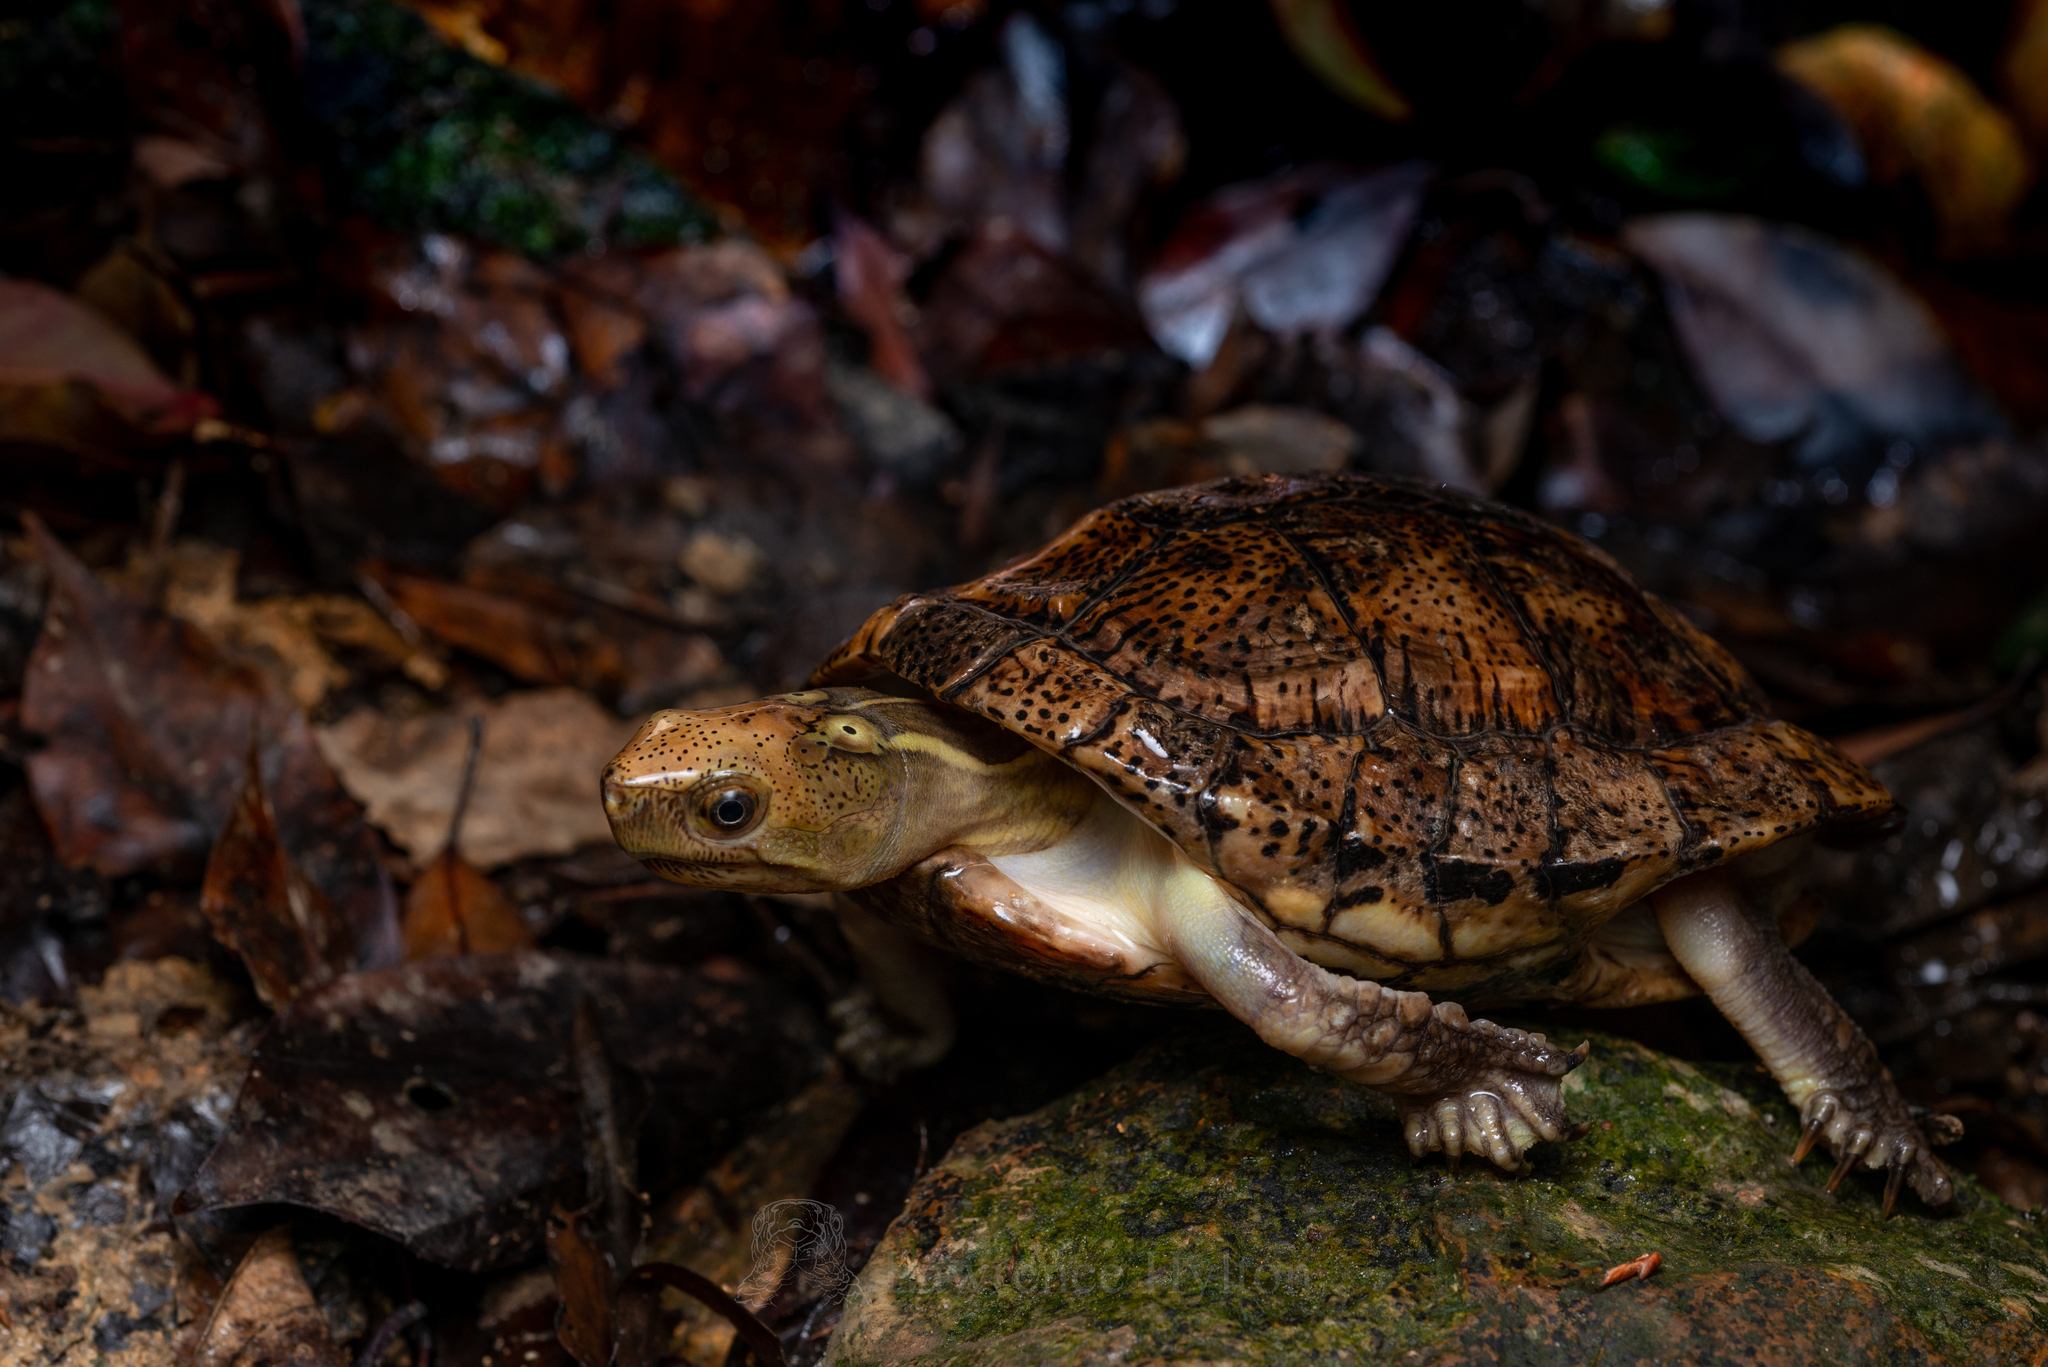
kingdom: Animalia
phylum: Chordata
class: Testudines
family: Geoemydidae
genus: Sacalia
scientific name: Sacalia bealei
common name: Beal’s four-eyed turtle
